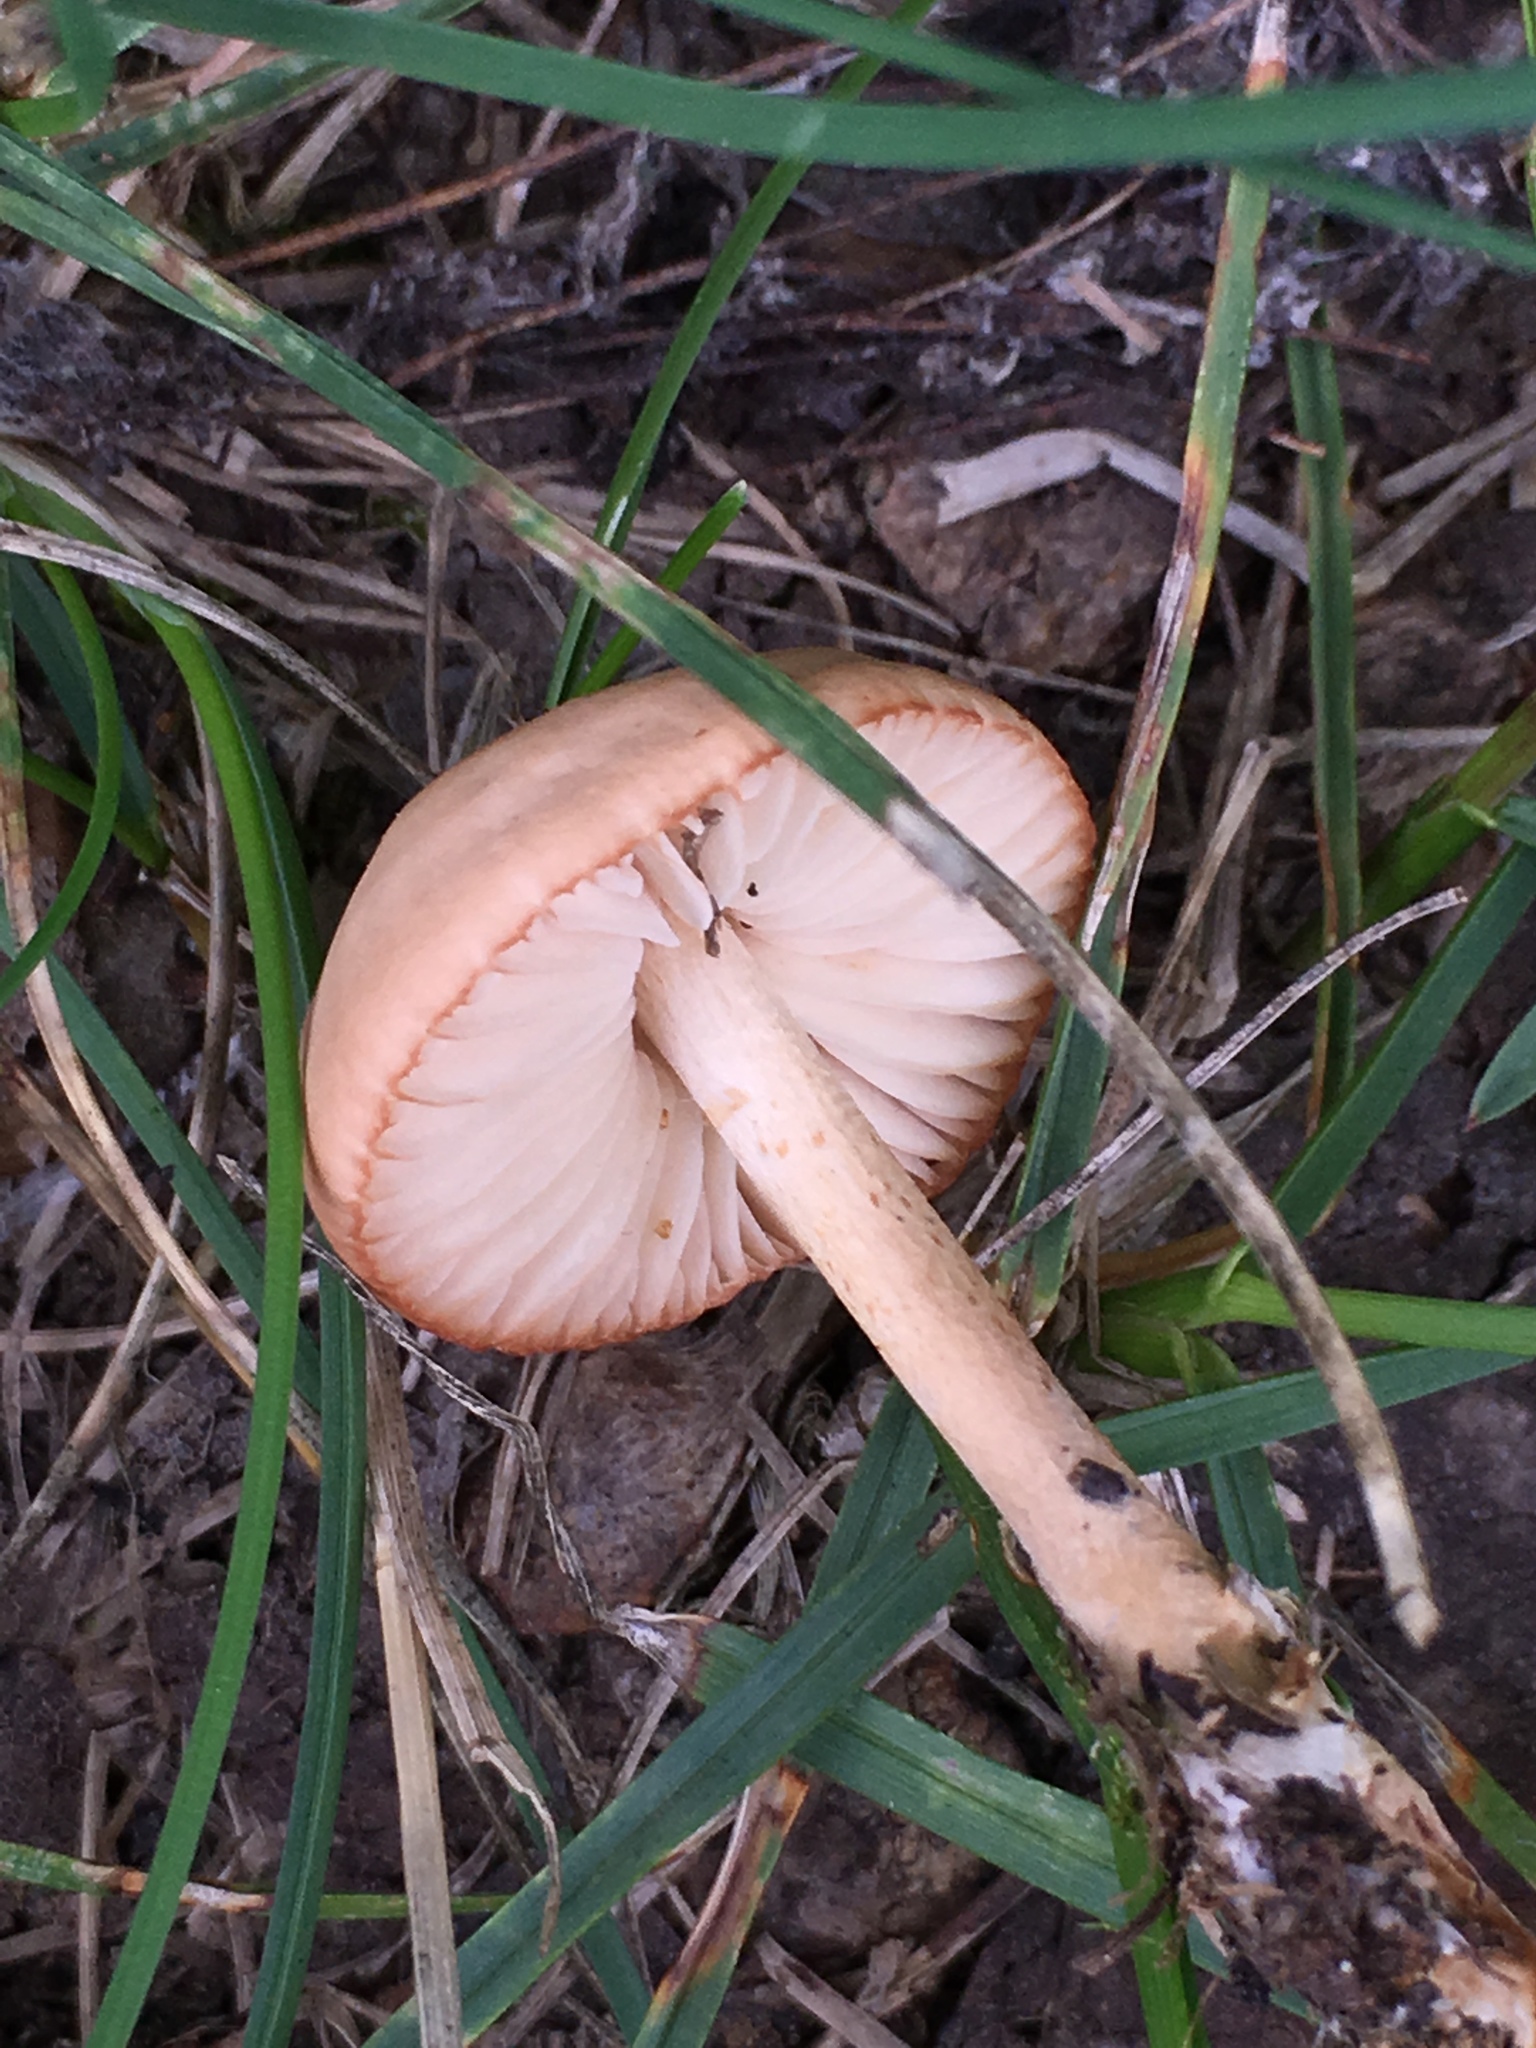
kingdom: Fungi
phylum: Basidiomycota
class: Agaricomycetes
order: Agaricales
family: Marasmiaceae
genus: Marasmius
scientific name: Marasmius oreades
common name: Fairy ring champignon
